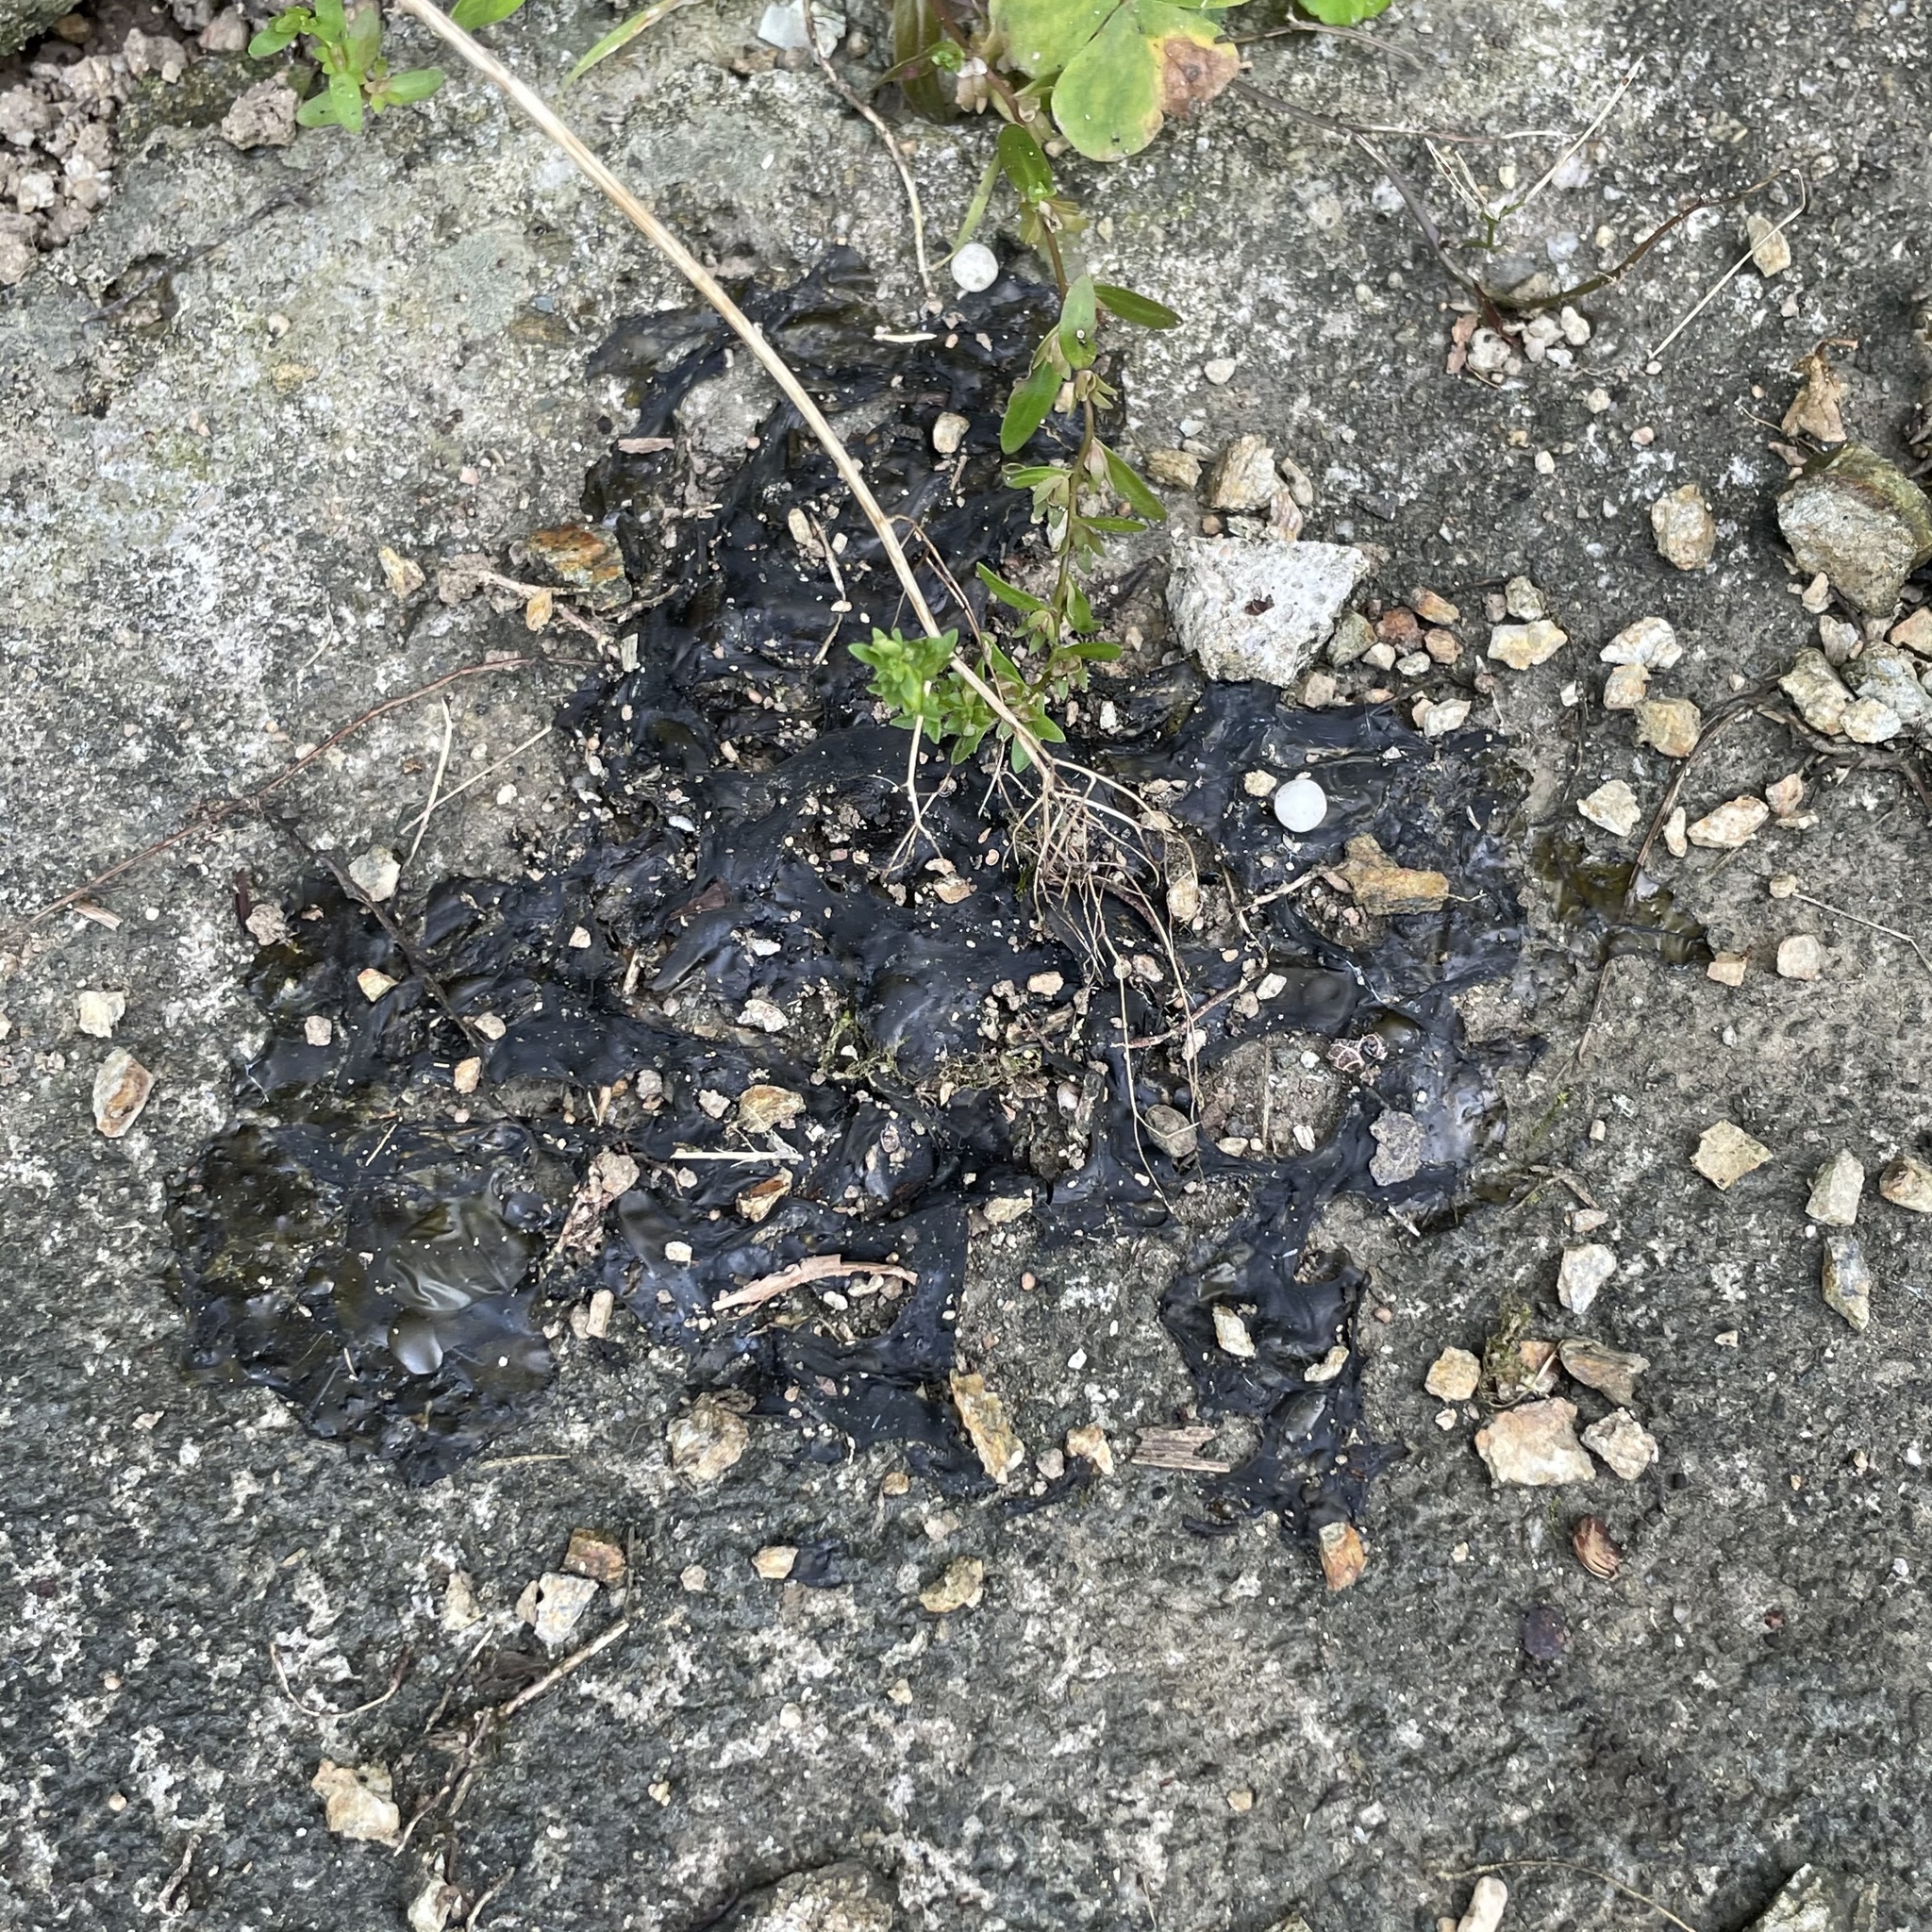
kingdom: Bacteria
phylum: Cyanobacteria
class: Cyanobacteriia
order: Cyanobacteriales
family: Nostocaceae
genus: Nostoc
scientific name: Nostoc commune
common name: Star jelly
